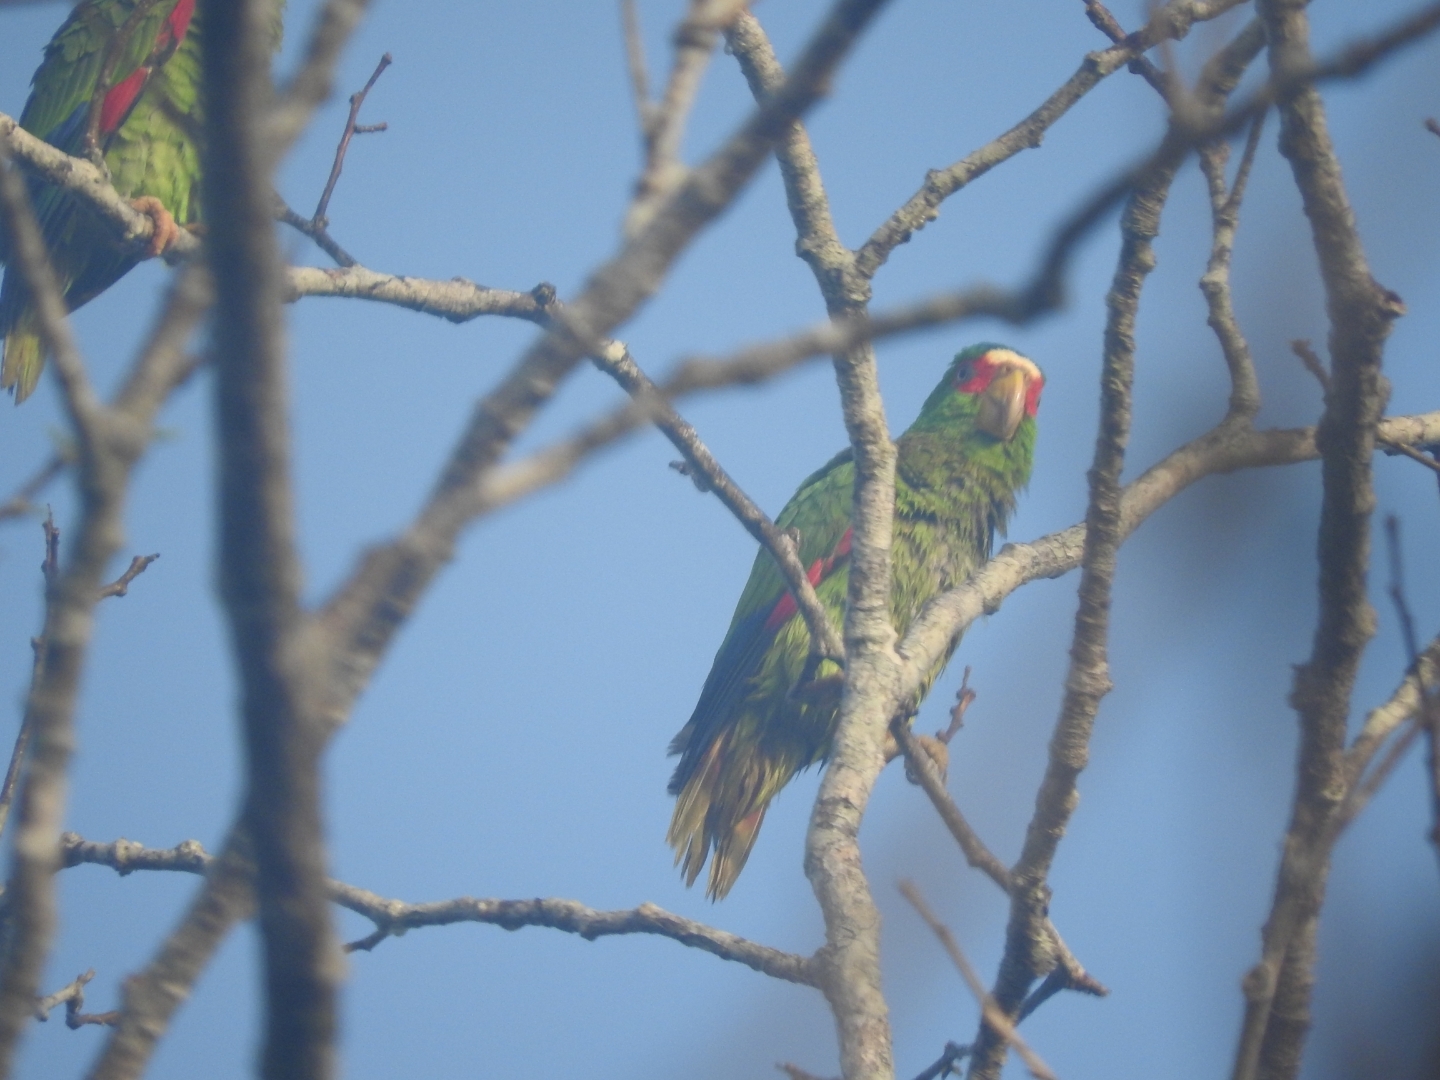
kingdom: Animalia
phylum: Chordata
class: Aves
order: Psittaciformes
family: Psittacidae
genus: Amazona
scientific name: Amazona albifrons
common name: White-fronted amazon
